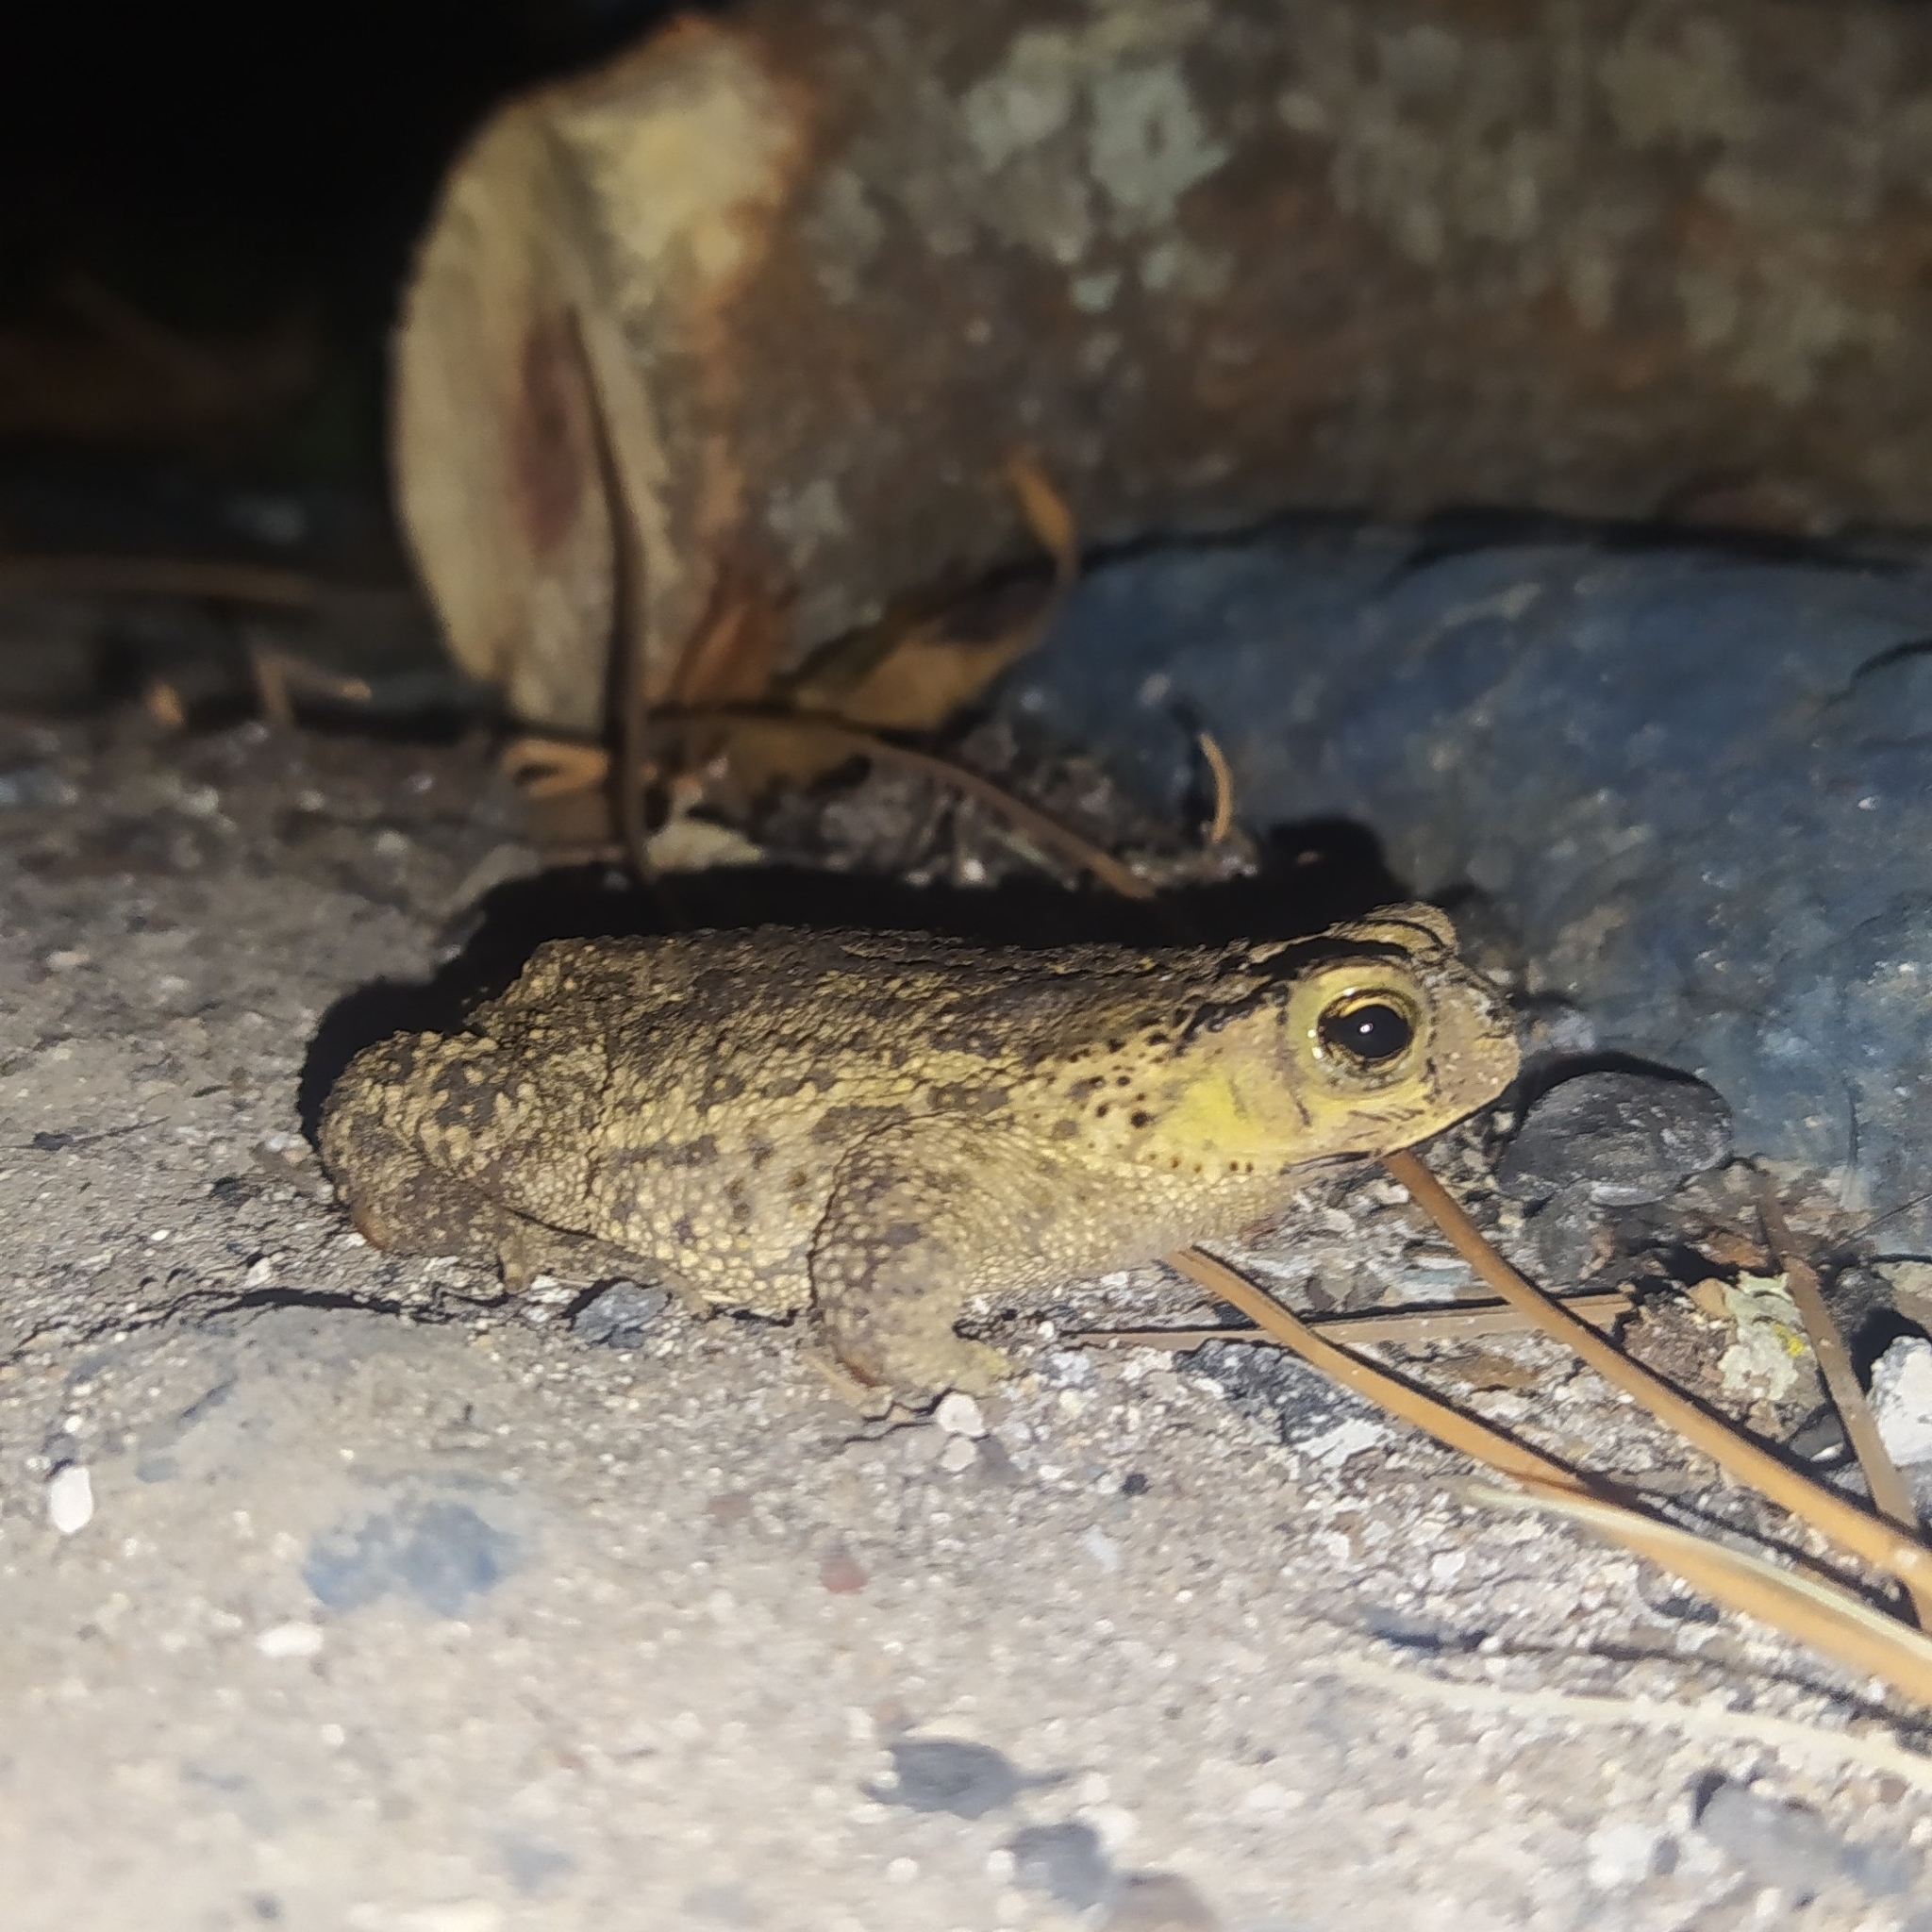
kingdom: Animalia
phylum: Chordata
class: Amphibia
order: Anura
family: Bufonidae
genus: Rhinella
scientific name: Rhinella dorbignyi
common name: D´orbigny’s toad
